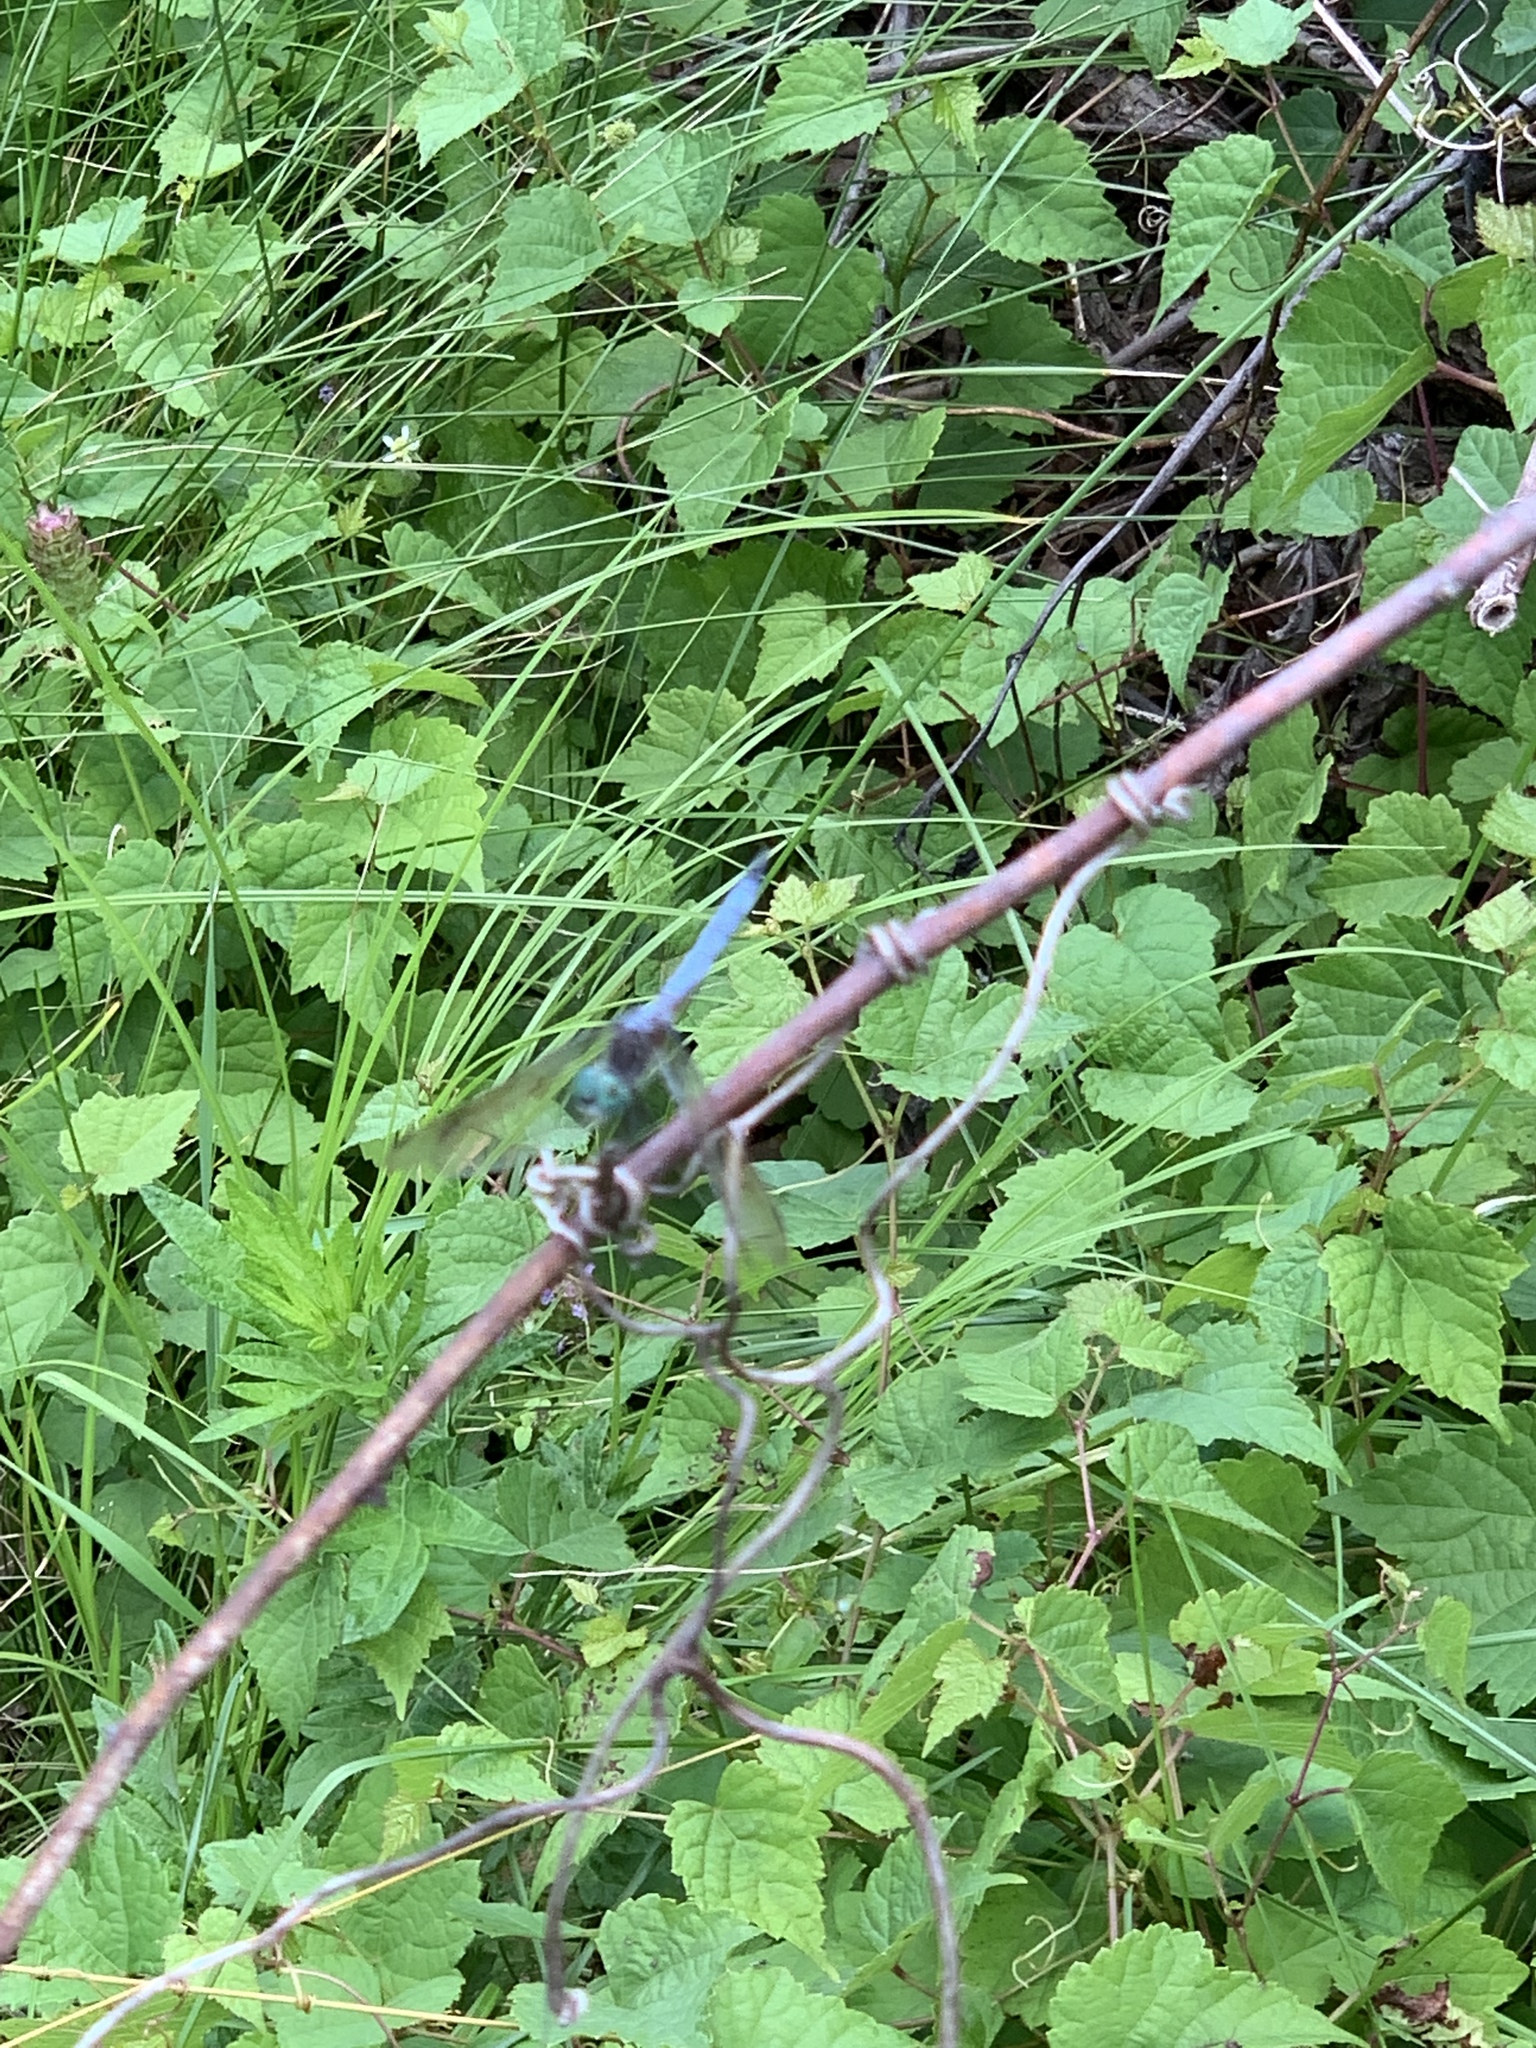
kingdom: Animalia
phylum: Arthropoda
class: Insecta
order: Odonata
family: Libellulidae
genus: Pachydiplax
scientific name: Pachydiplax longipennis
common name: Blue dasher
